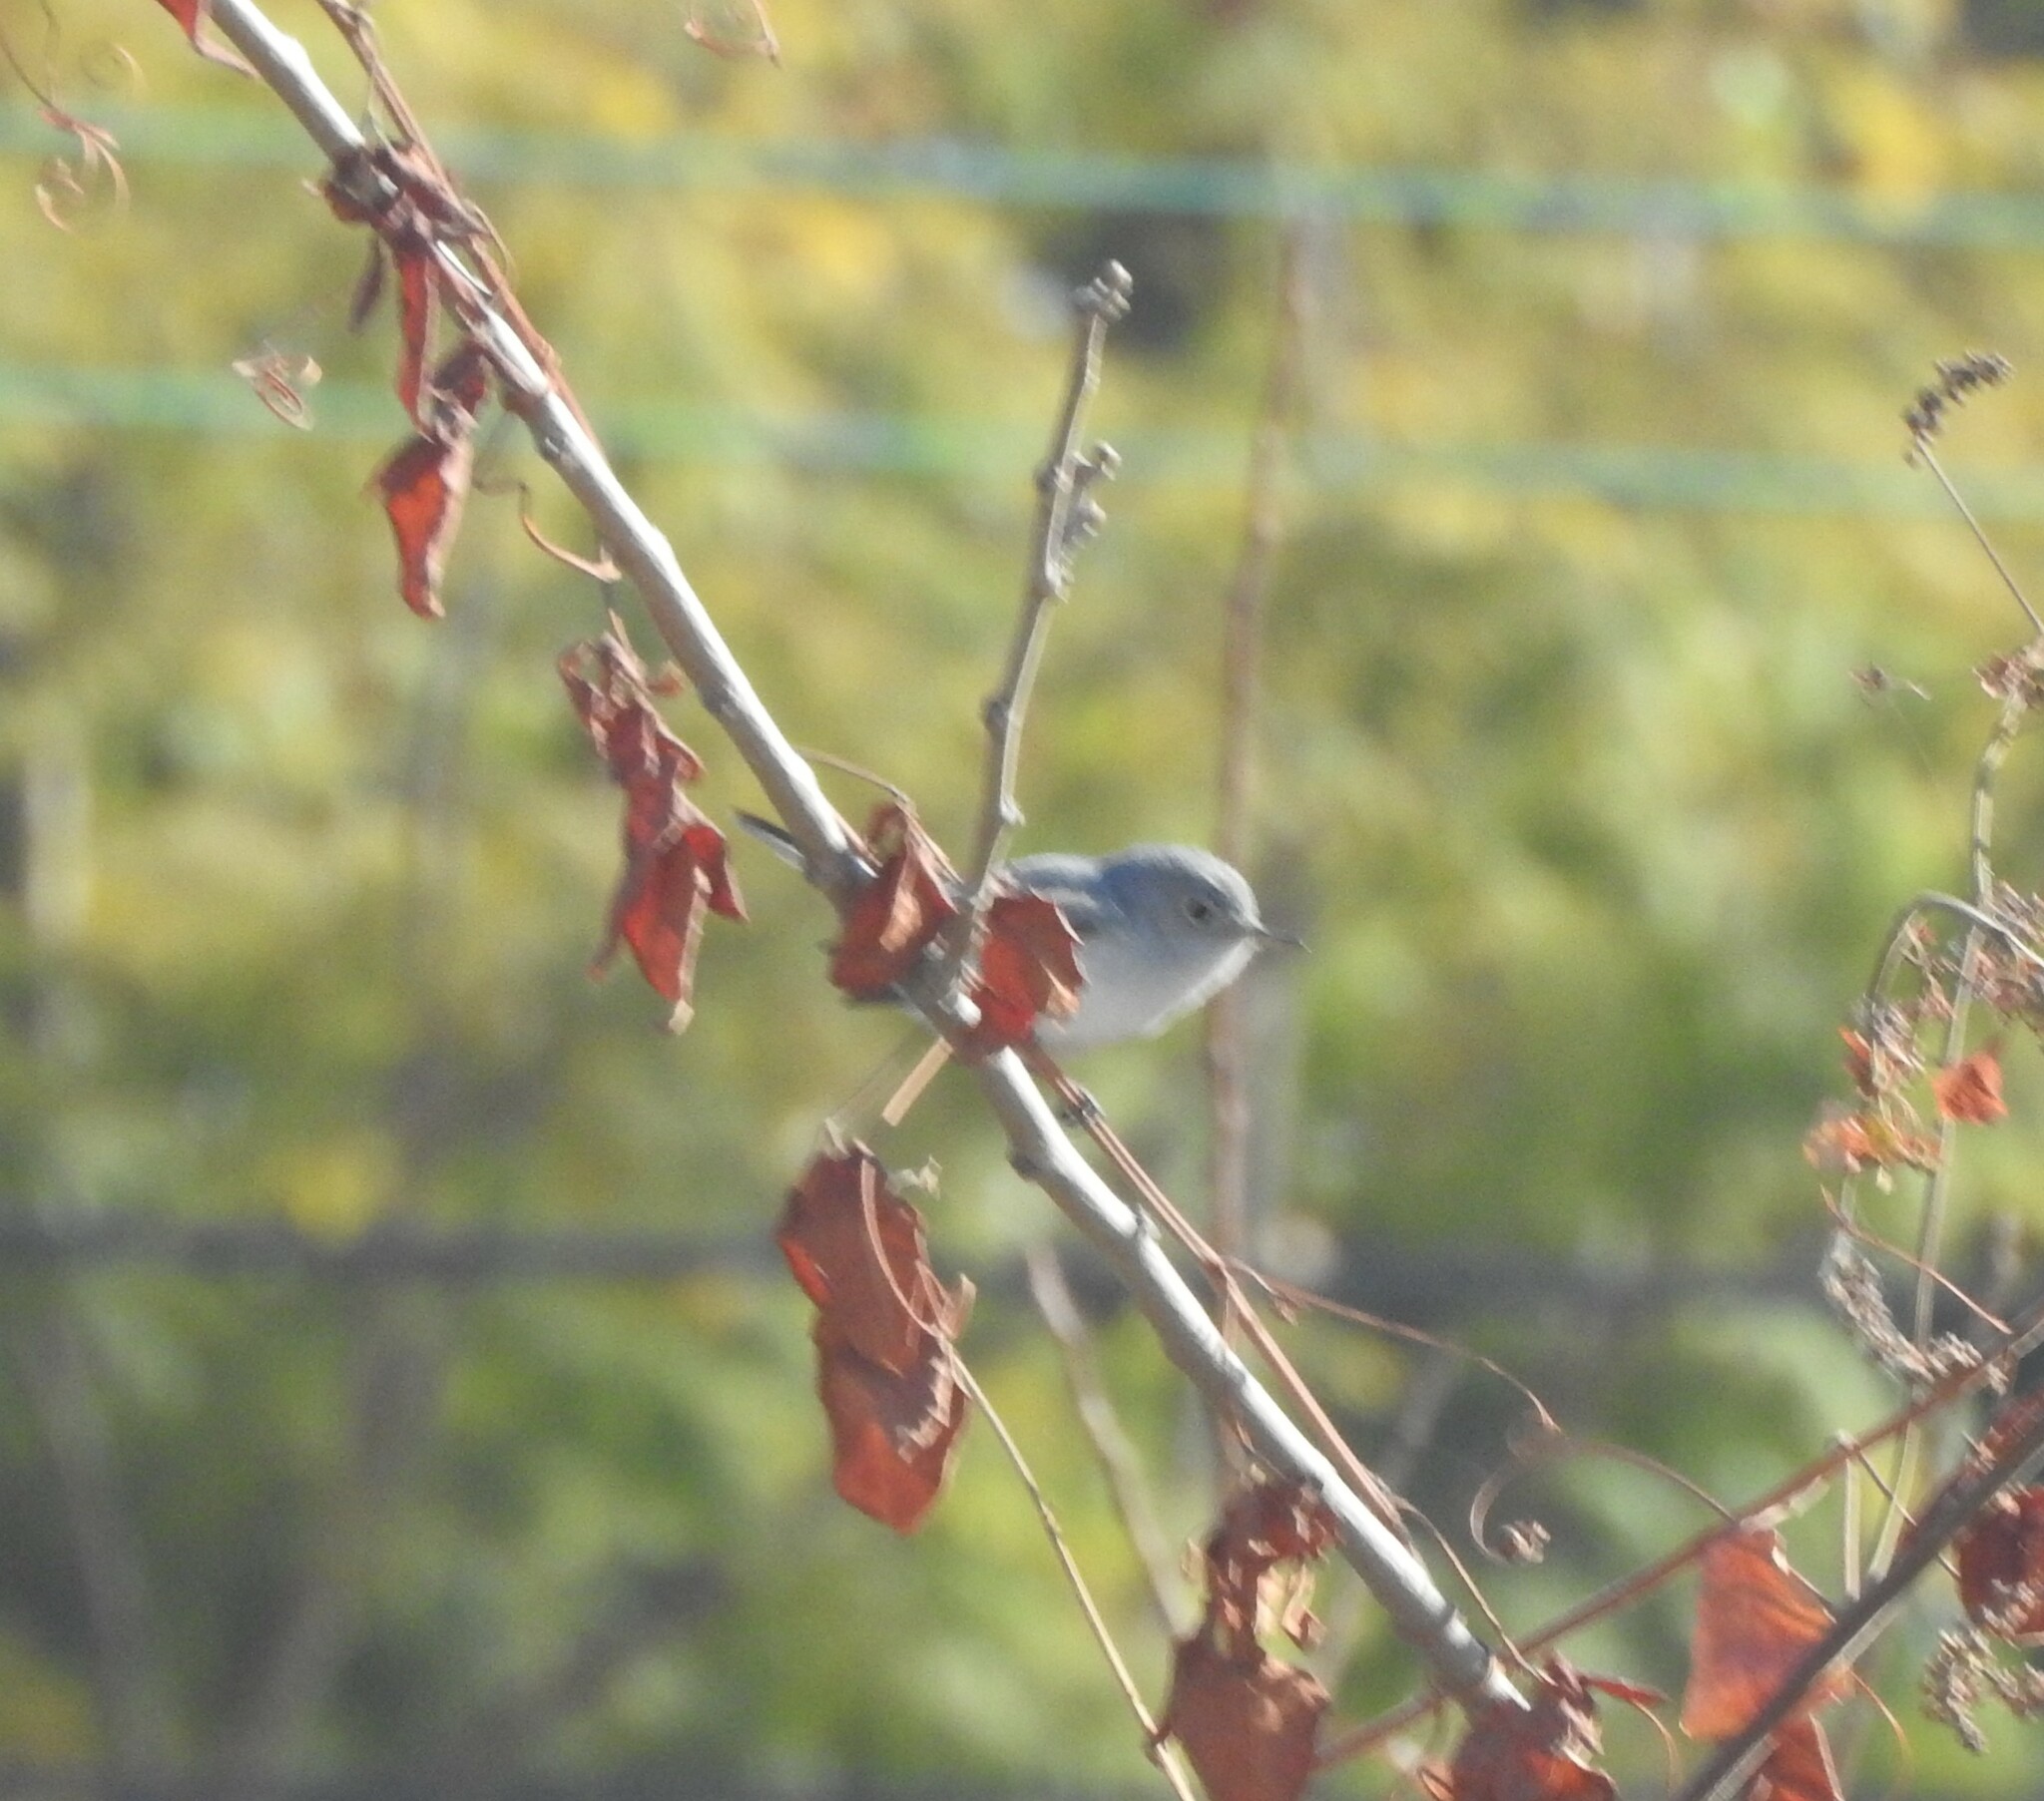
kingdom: Animalia
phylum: Chordata
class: Aves
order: Passeriformes
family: Polioptilidae
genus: Polioptila
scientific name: Polioptila caerulea
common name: Blue-gray gnatcatcher
